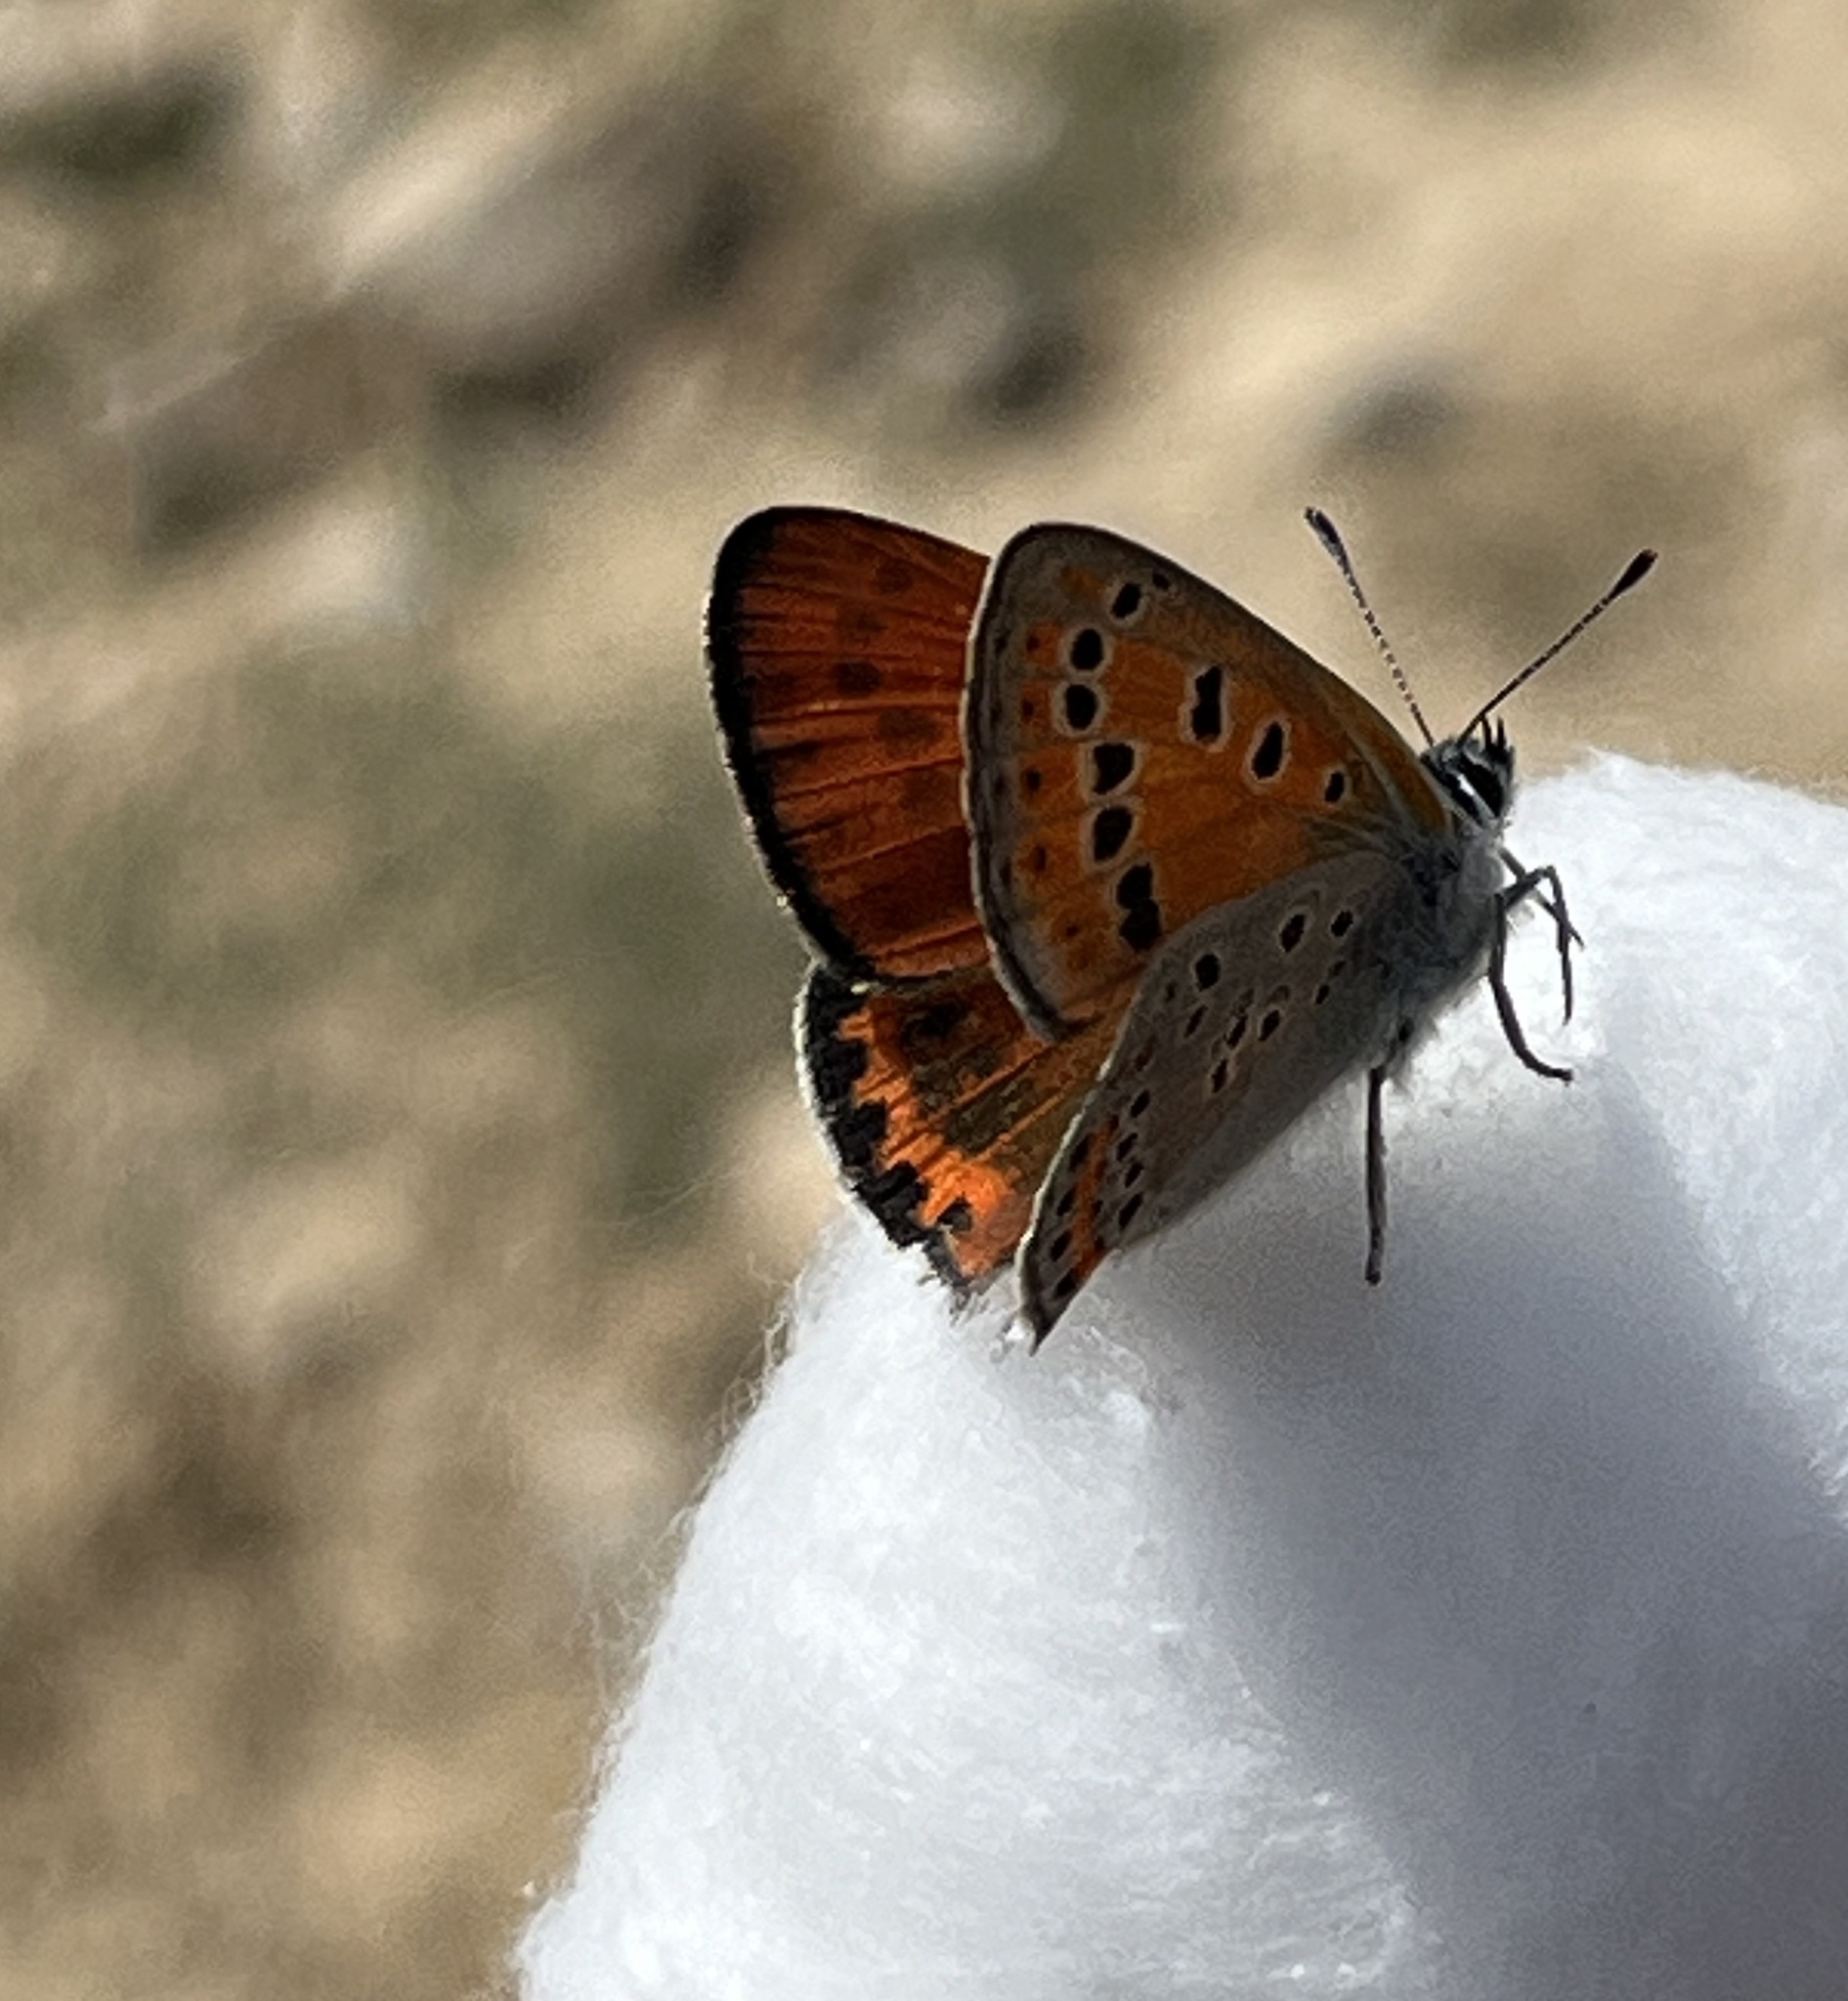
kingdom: Animalia
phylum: Arthropoda
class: Insecta
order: Lepidoptera
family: Lycaenidae
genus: Thersamonia
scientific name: Thersamonia thersamon
